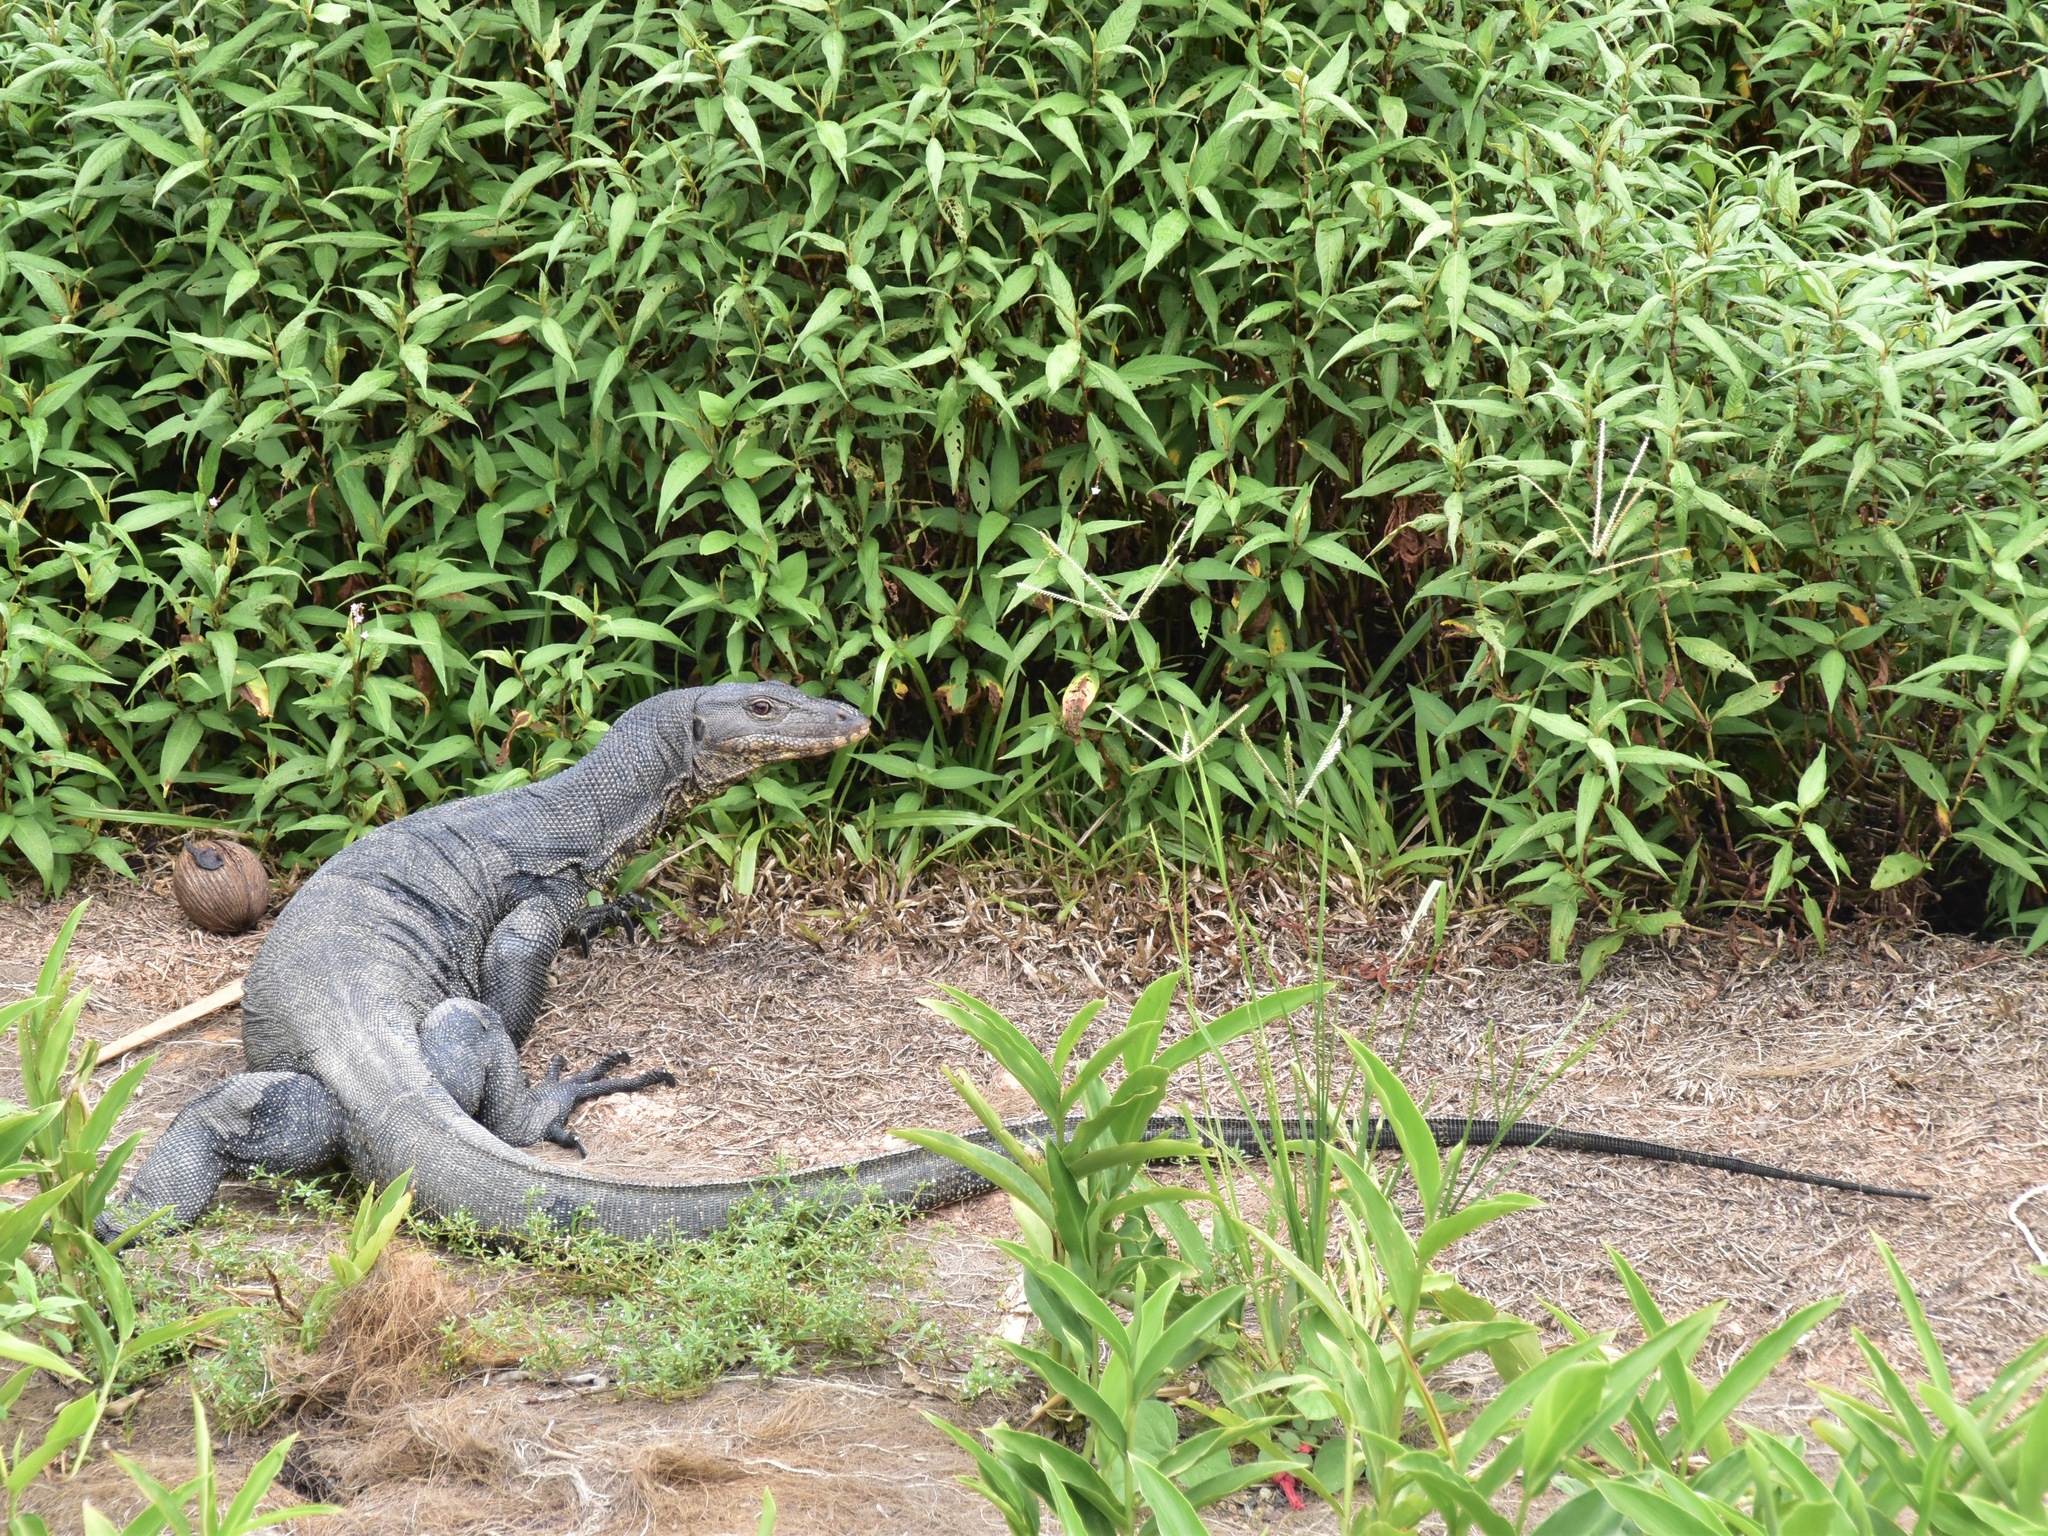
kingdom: Animalia
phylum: Chordata
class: Squamata
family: Varanidae
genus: Varanus
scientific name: Varanus salvator
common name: Common water monitor
